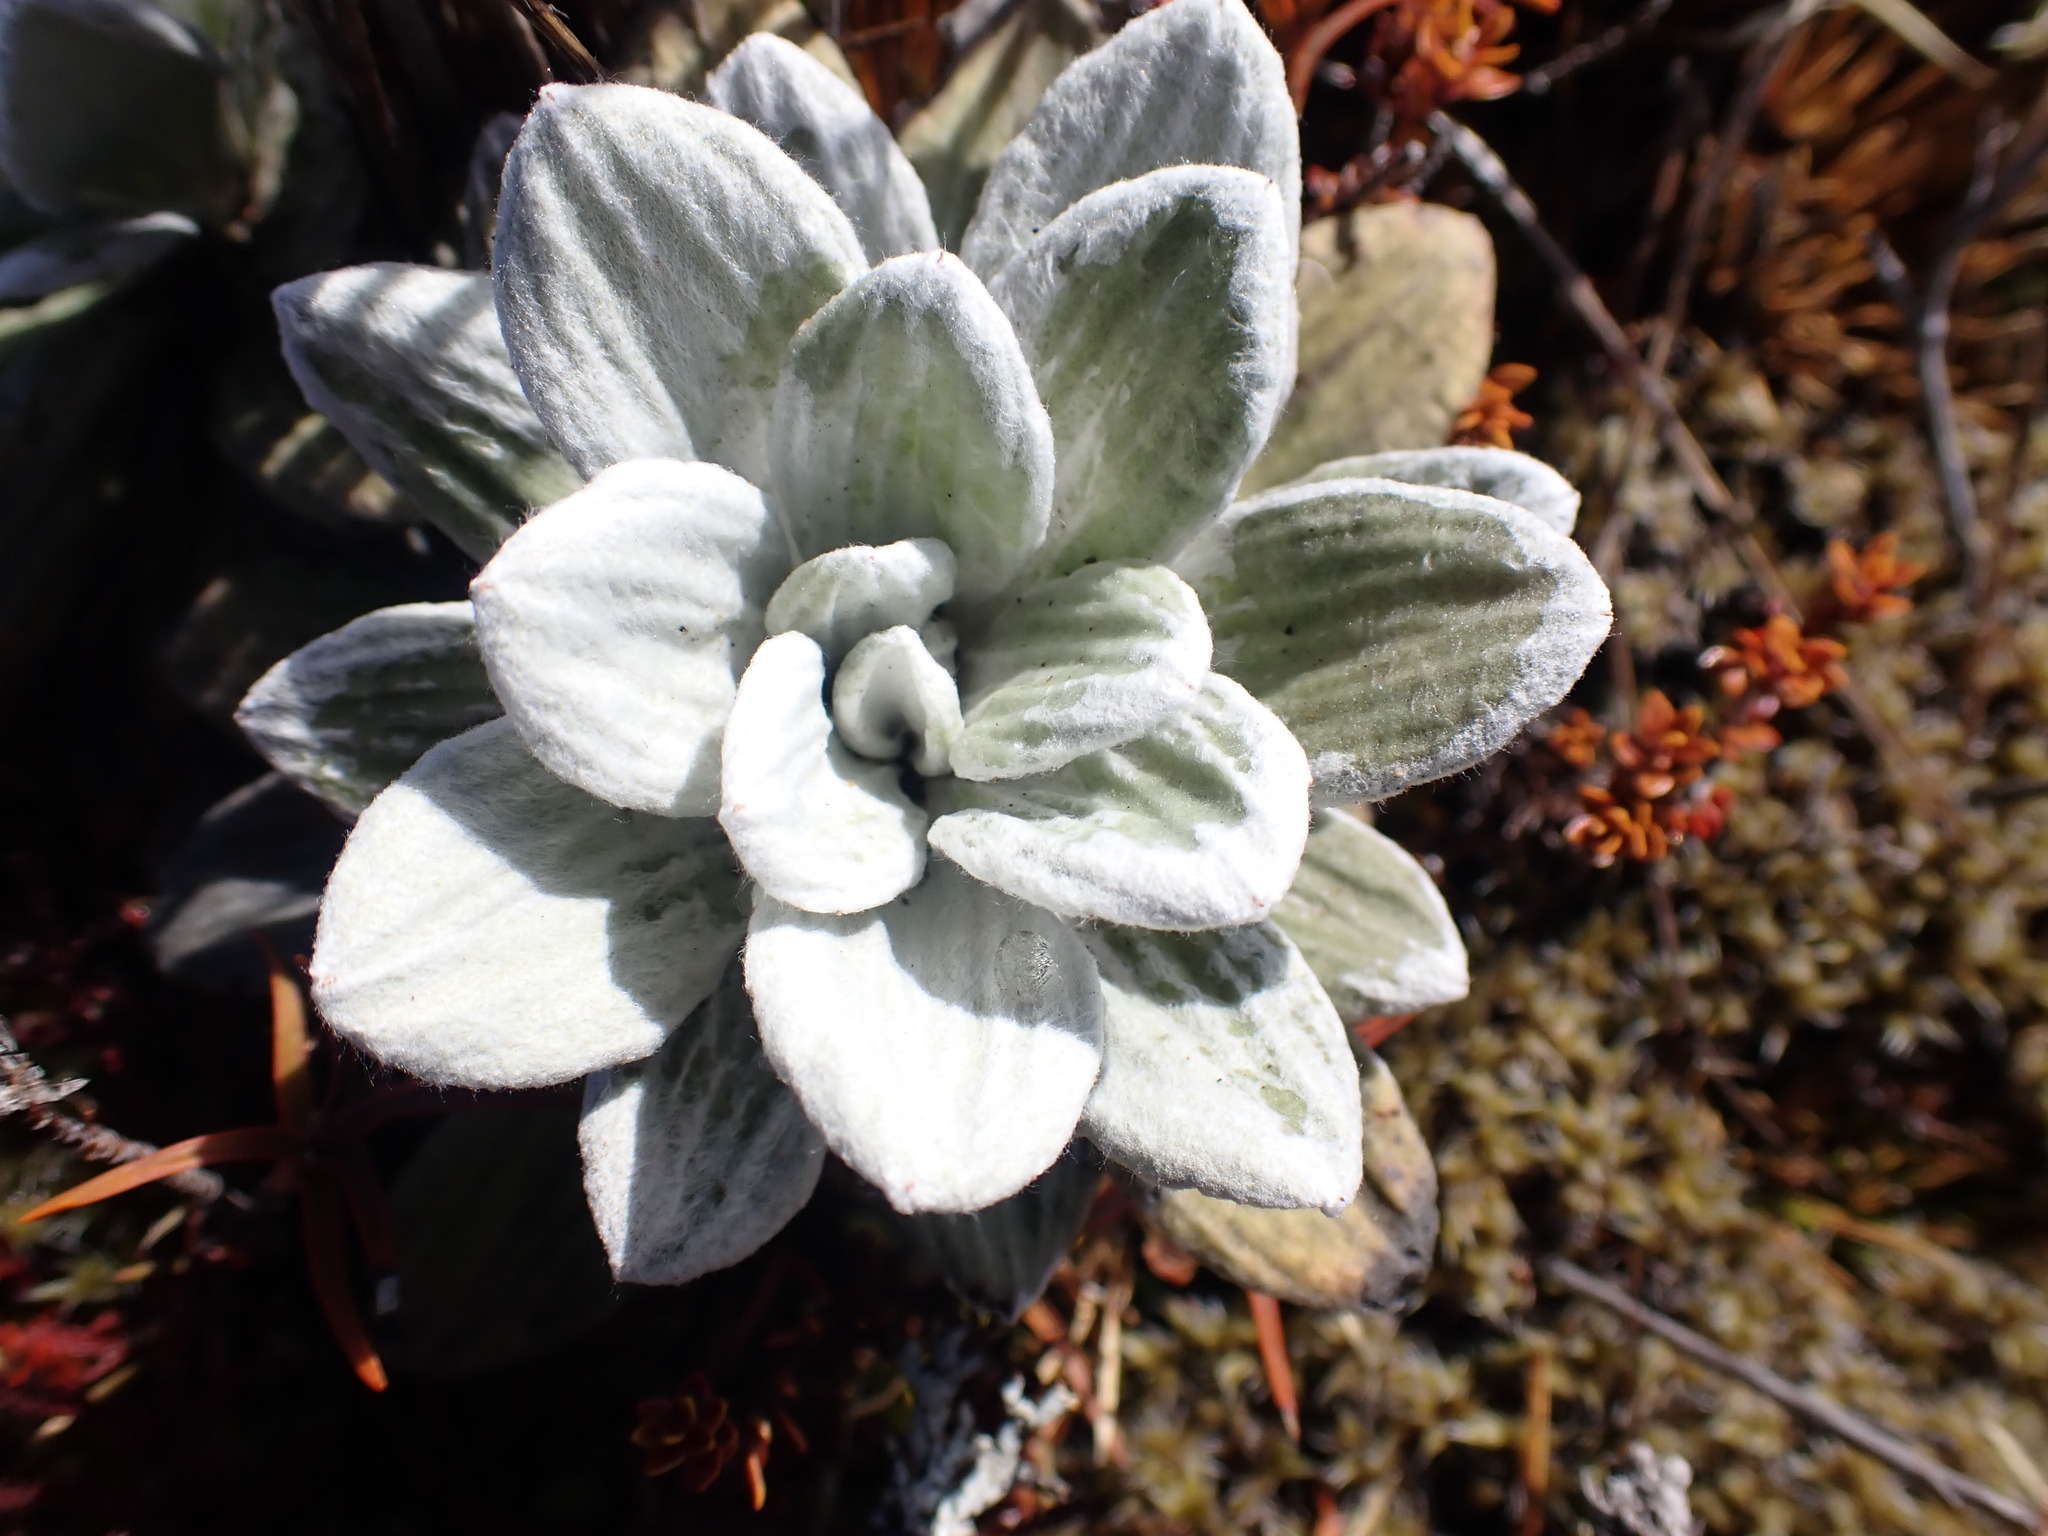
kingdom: Plantae
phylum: Tracheophyta
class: Magnoliopsida
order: Asterales
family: Asteraceae
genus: Celmisia
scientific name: Celmisia incana
